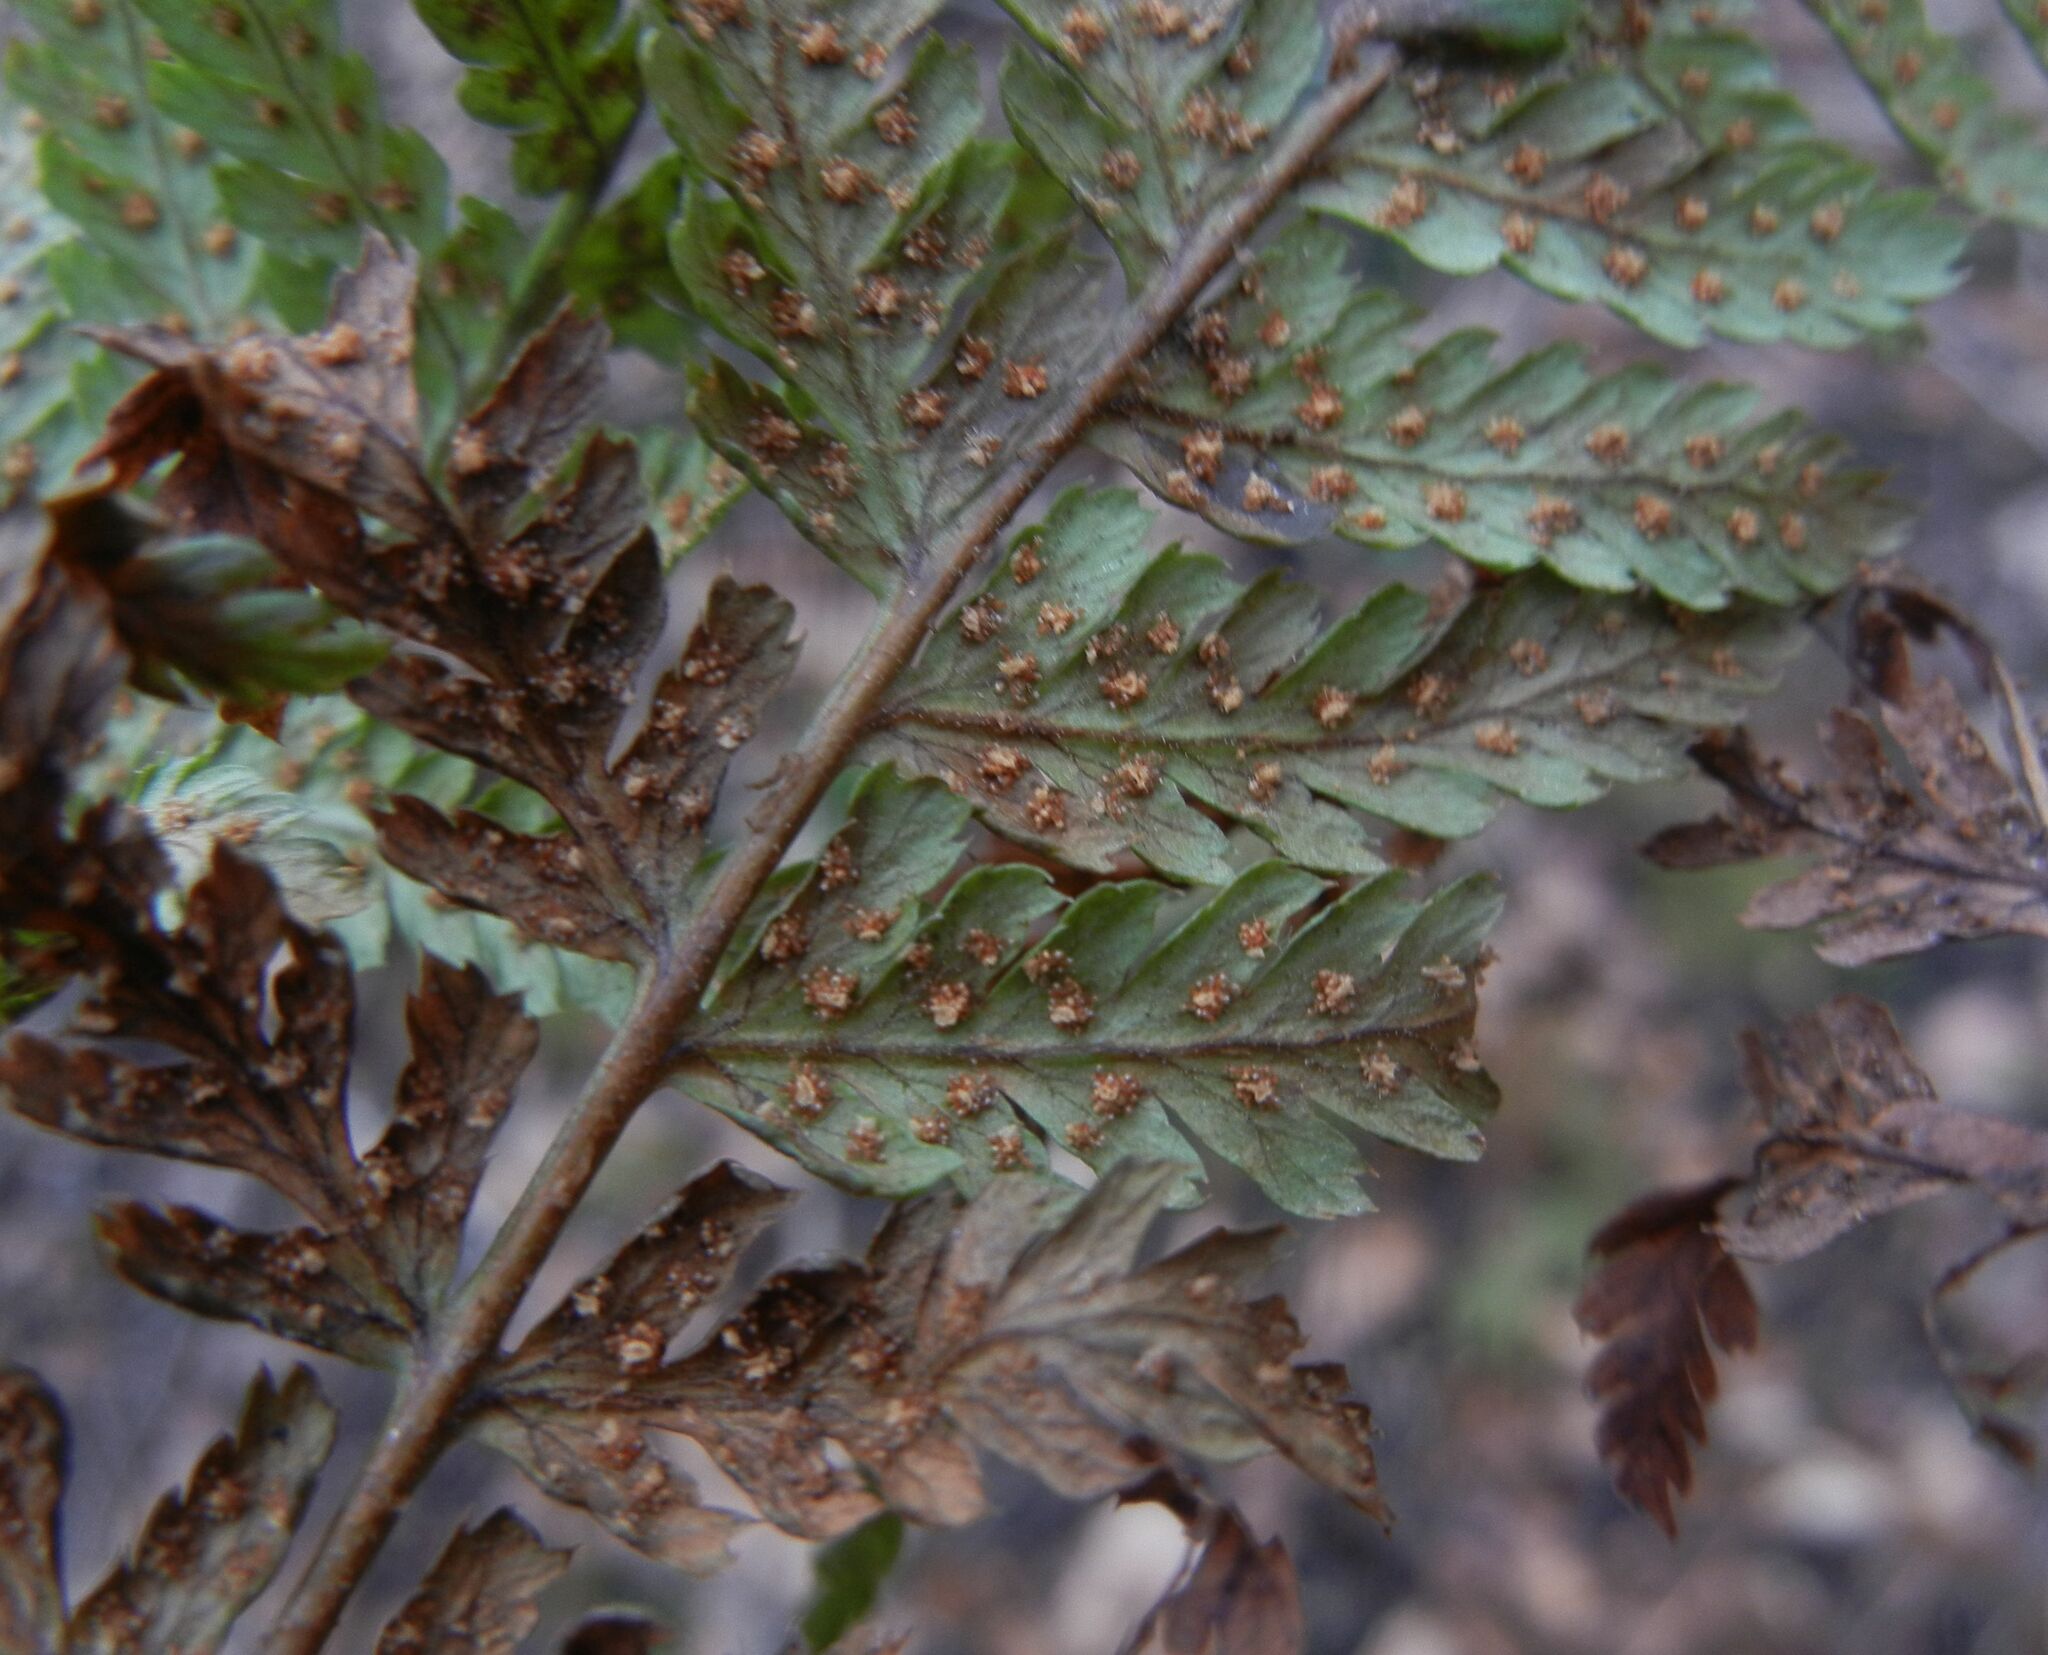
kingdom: Plantae
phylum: Tracheophyta
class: Polypodiopsida
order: Polypodiales
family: Dryopteridaceae
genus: Dryopteris
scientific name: Dryopteris dilatata
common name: Broad buckler-fern
